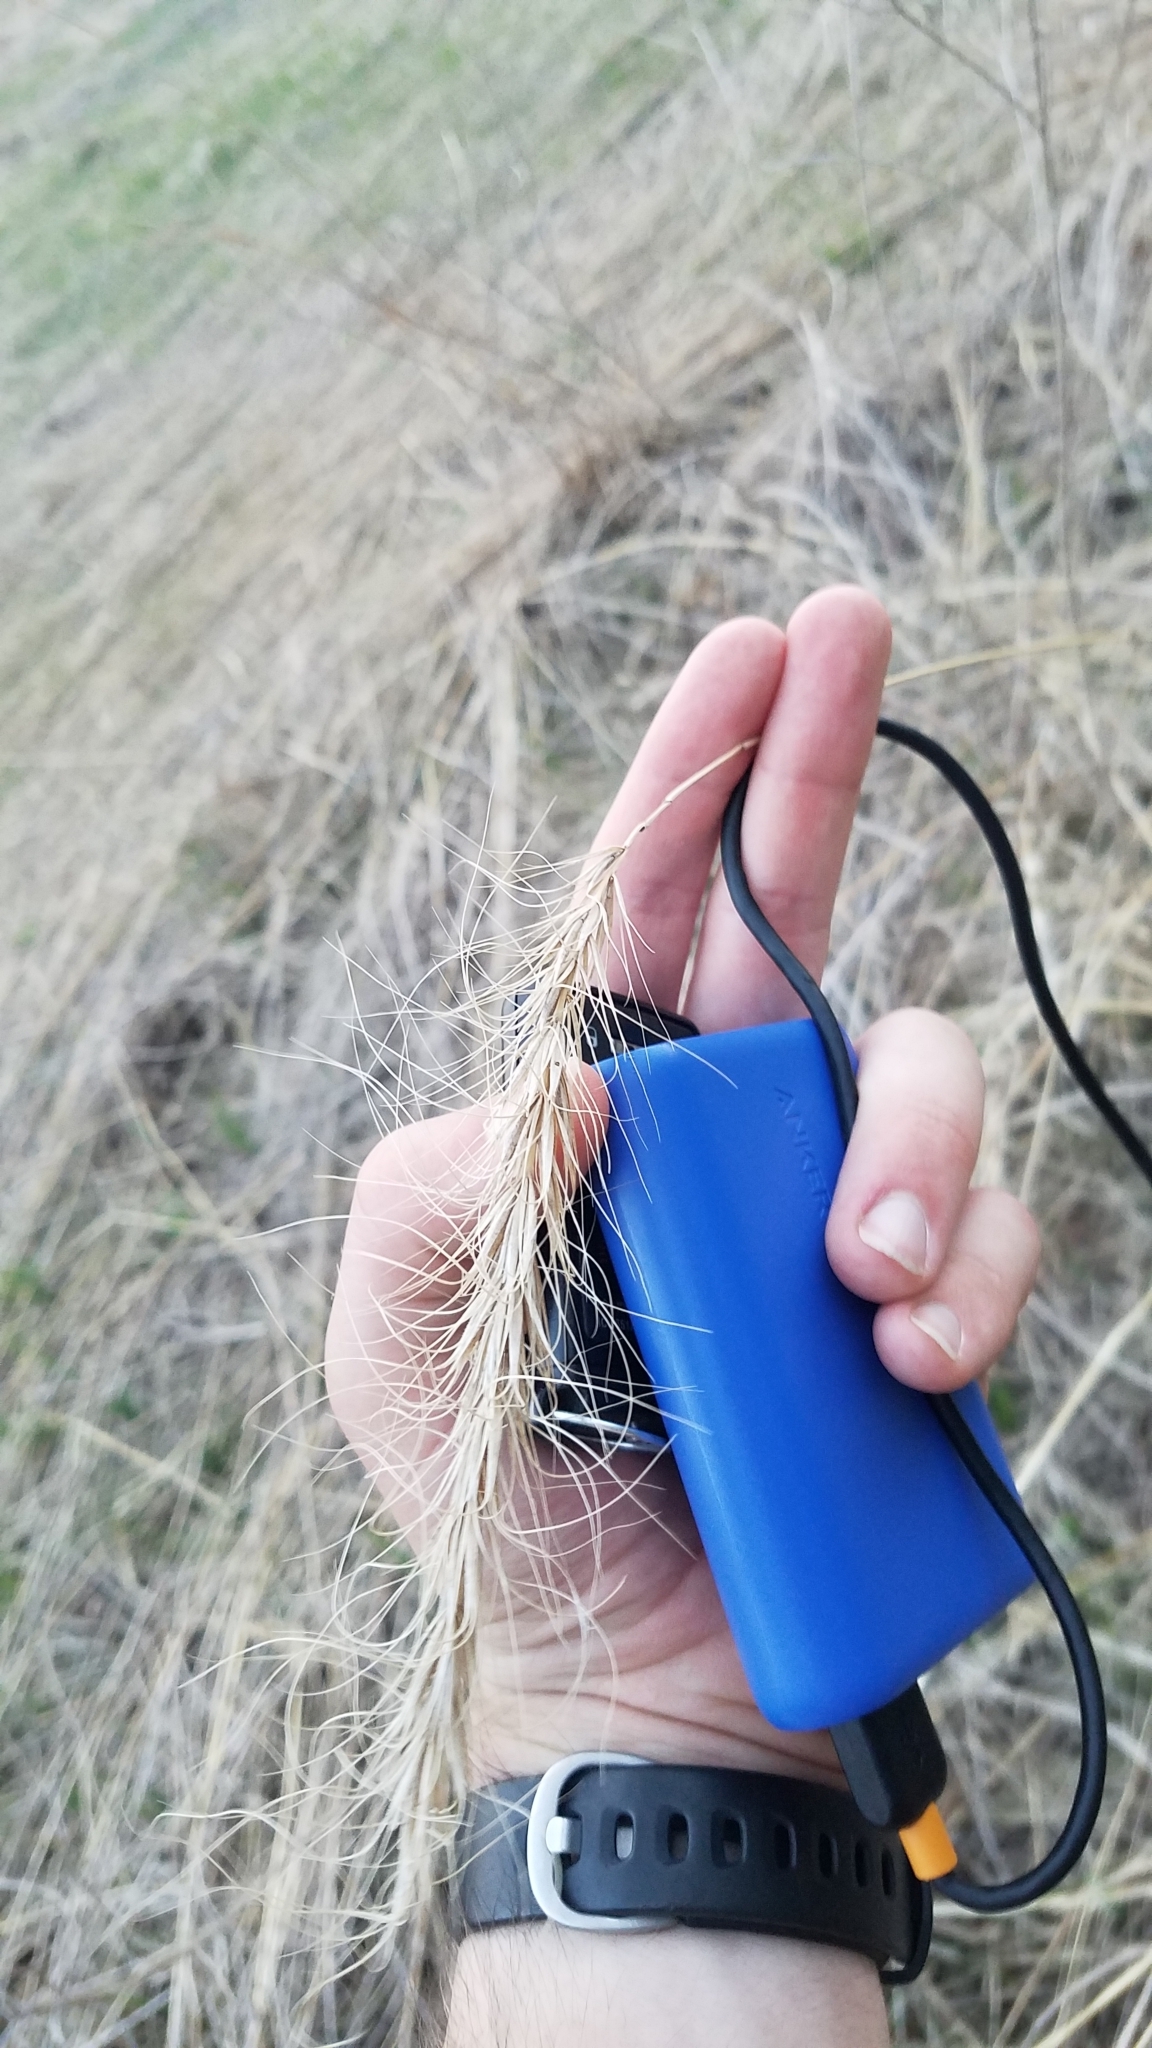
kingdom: Plantae
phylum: Tracheophyta
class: Liliopsida
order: Poales
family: Poaceae
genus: Elymus
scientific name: Elymus canadensis
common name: Canada wild rye
